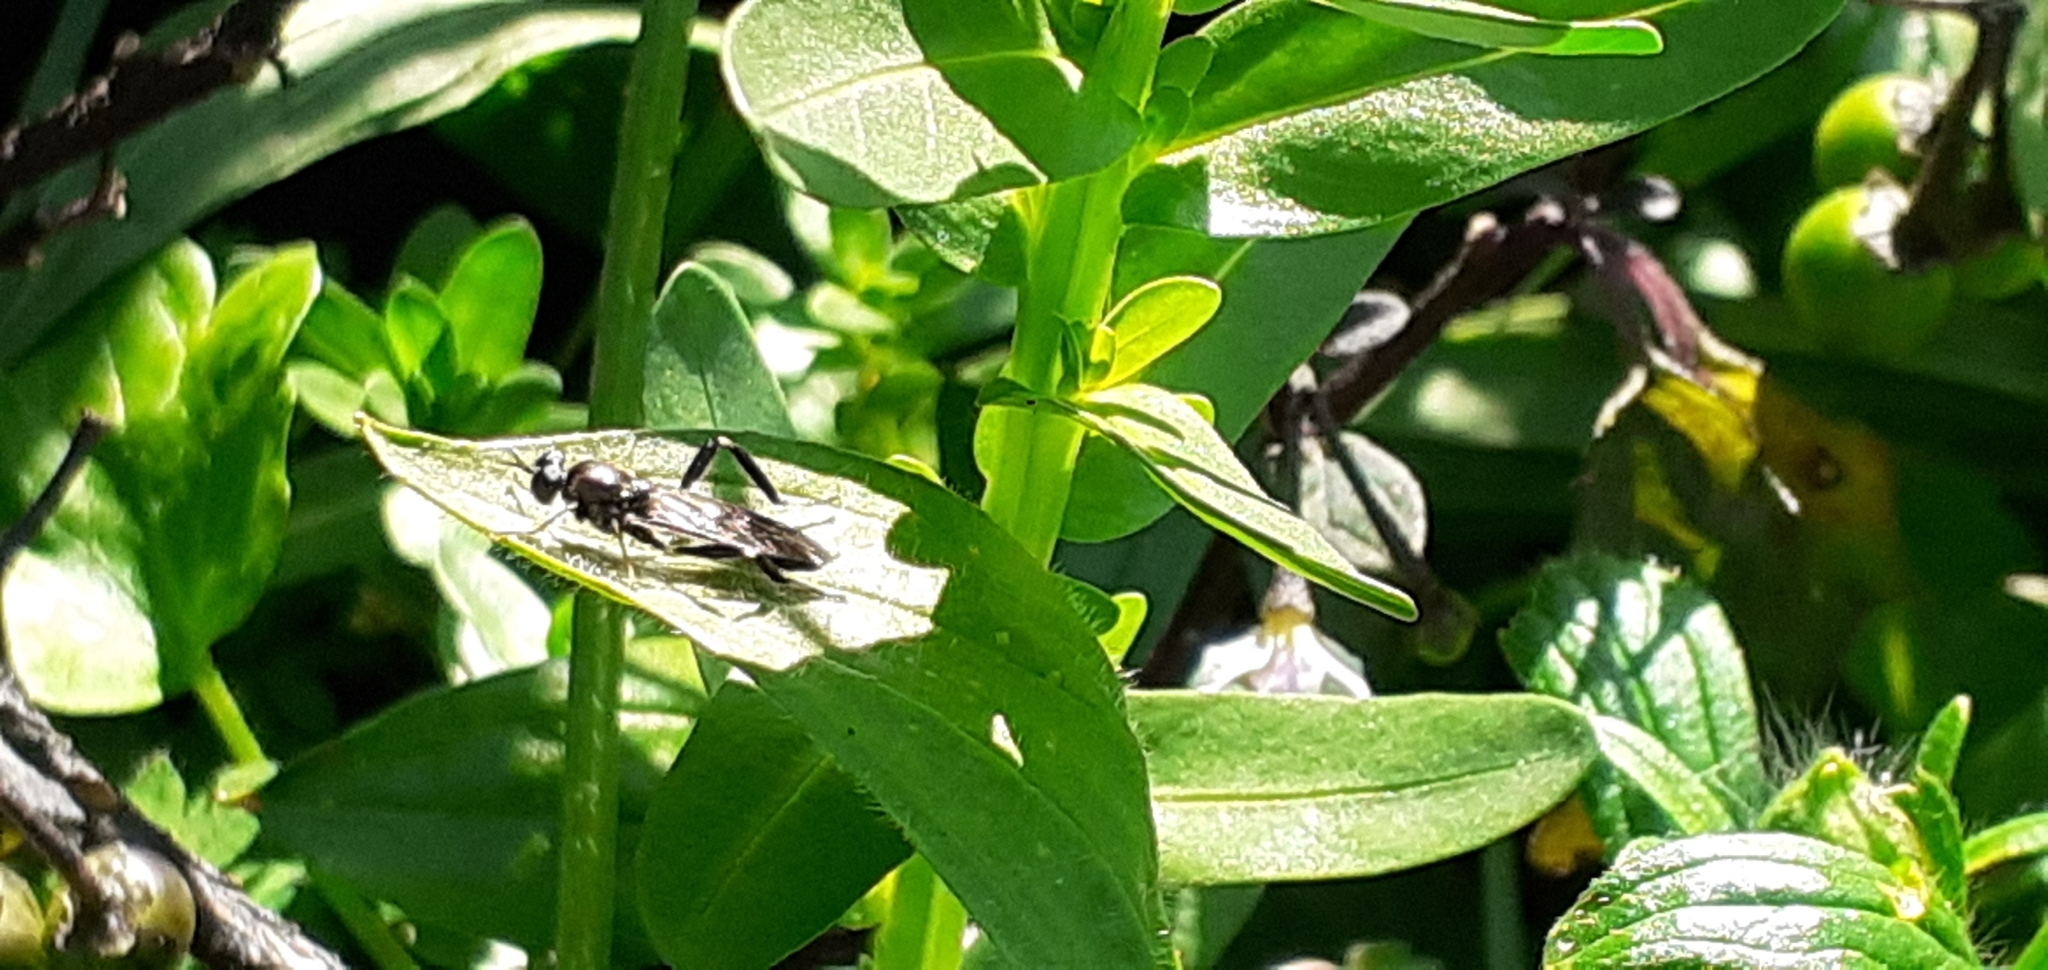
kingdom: Animalia
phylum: Arthropoda
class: Insecta
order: Diptera
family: Stratiomyidae
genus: Exaireta
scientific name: Exaireta spinigera
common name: Blue soldier fly
